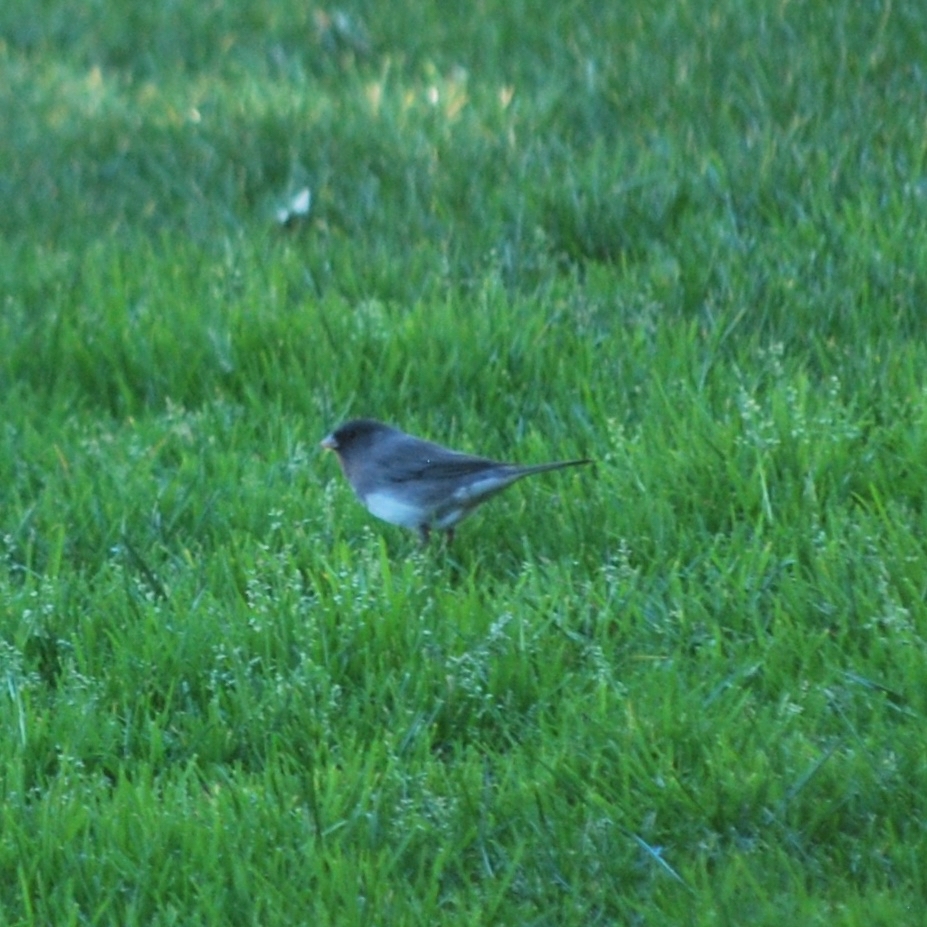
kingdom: Animalia
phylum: Chordata
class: Aves
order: Passeriformes
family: Passerellidae
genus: Junco
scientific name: Junco hyemalis
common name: Dark-eyed junco
